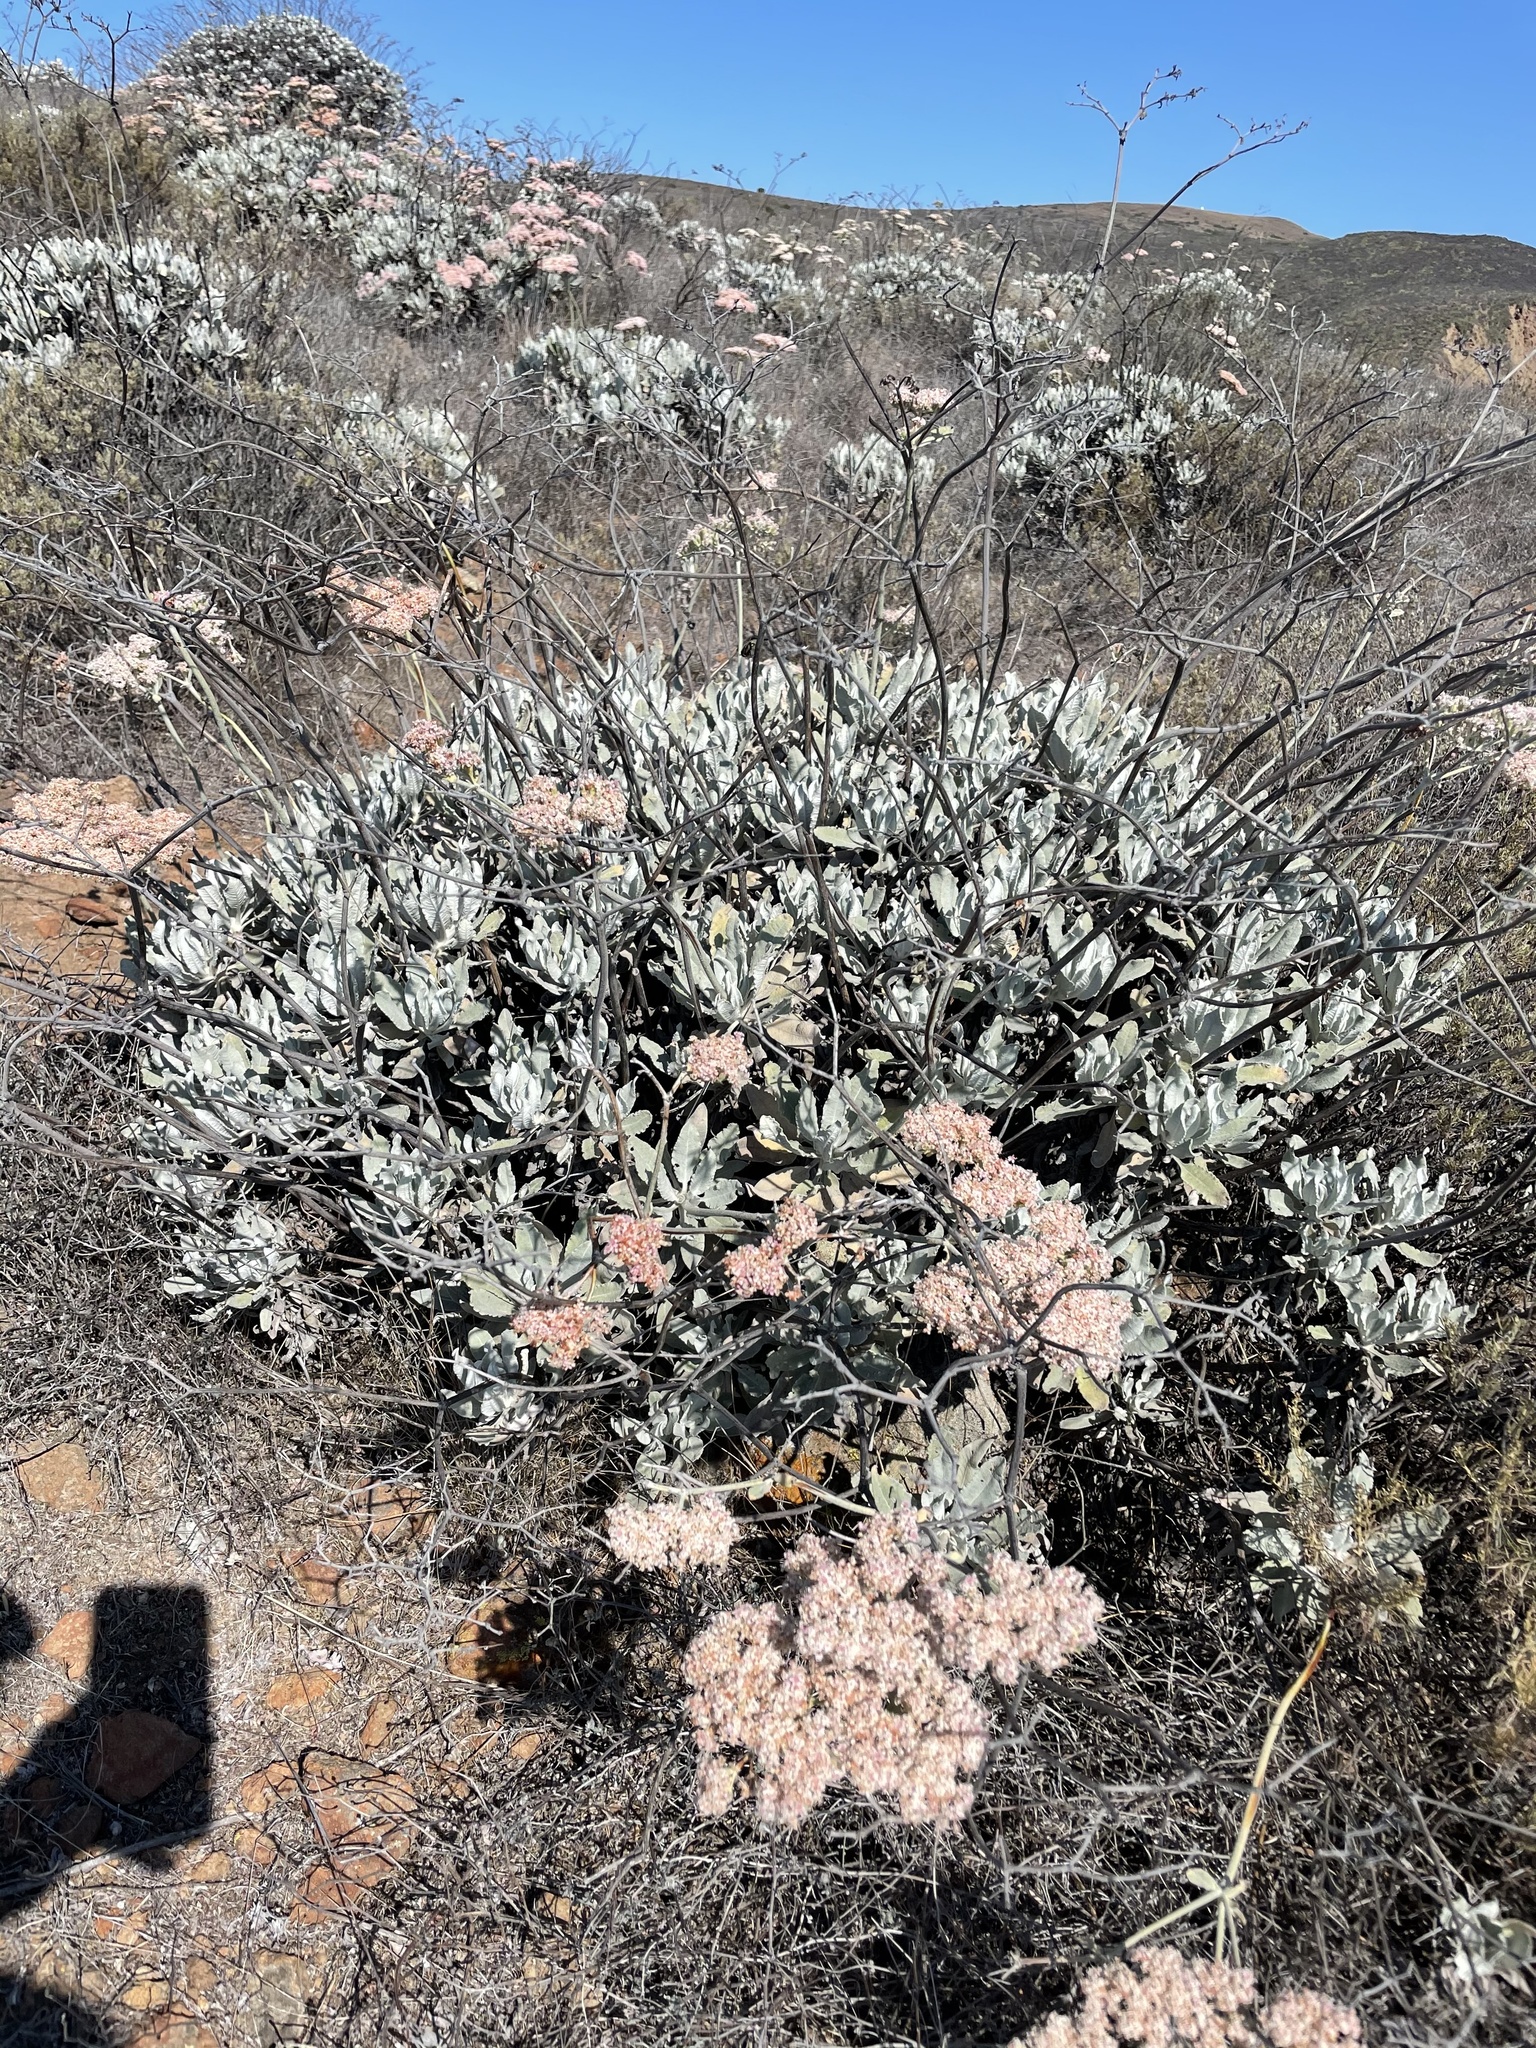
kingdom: Plantae
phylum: Tracheophyta
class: Magnoliopsida
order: Caryophyllales
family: Polygonaceae
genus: Eriogonum
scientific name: Eriogonum giganteum
